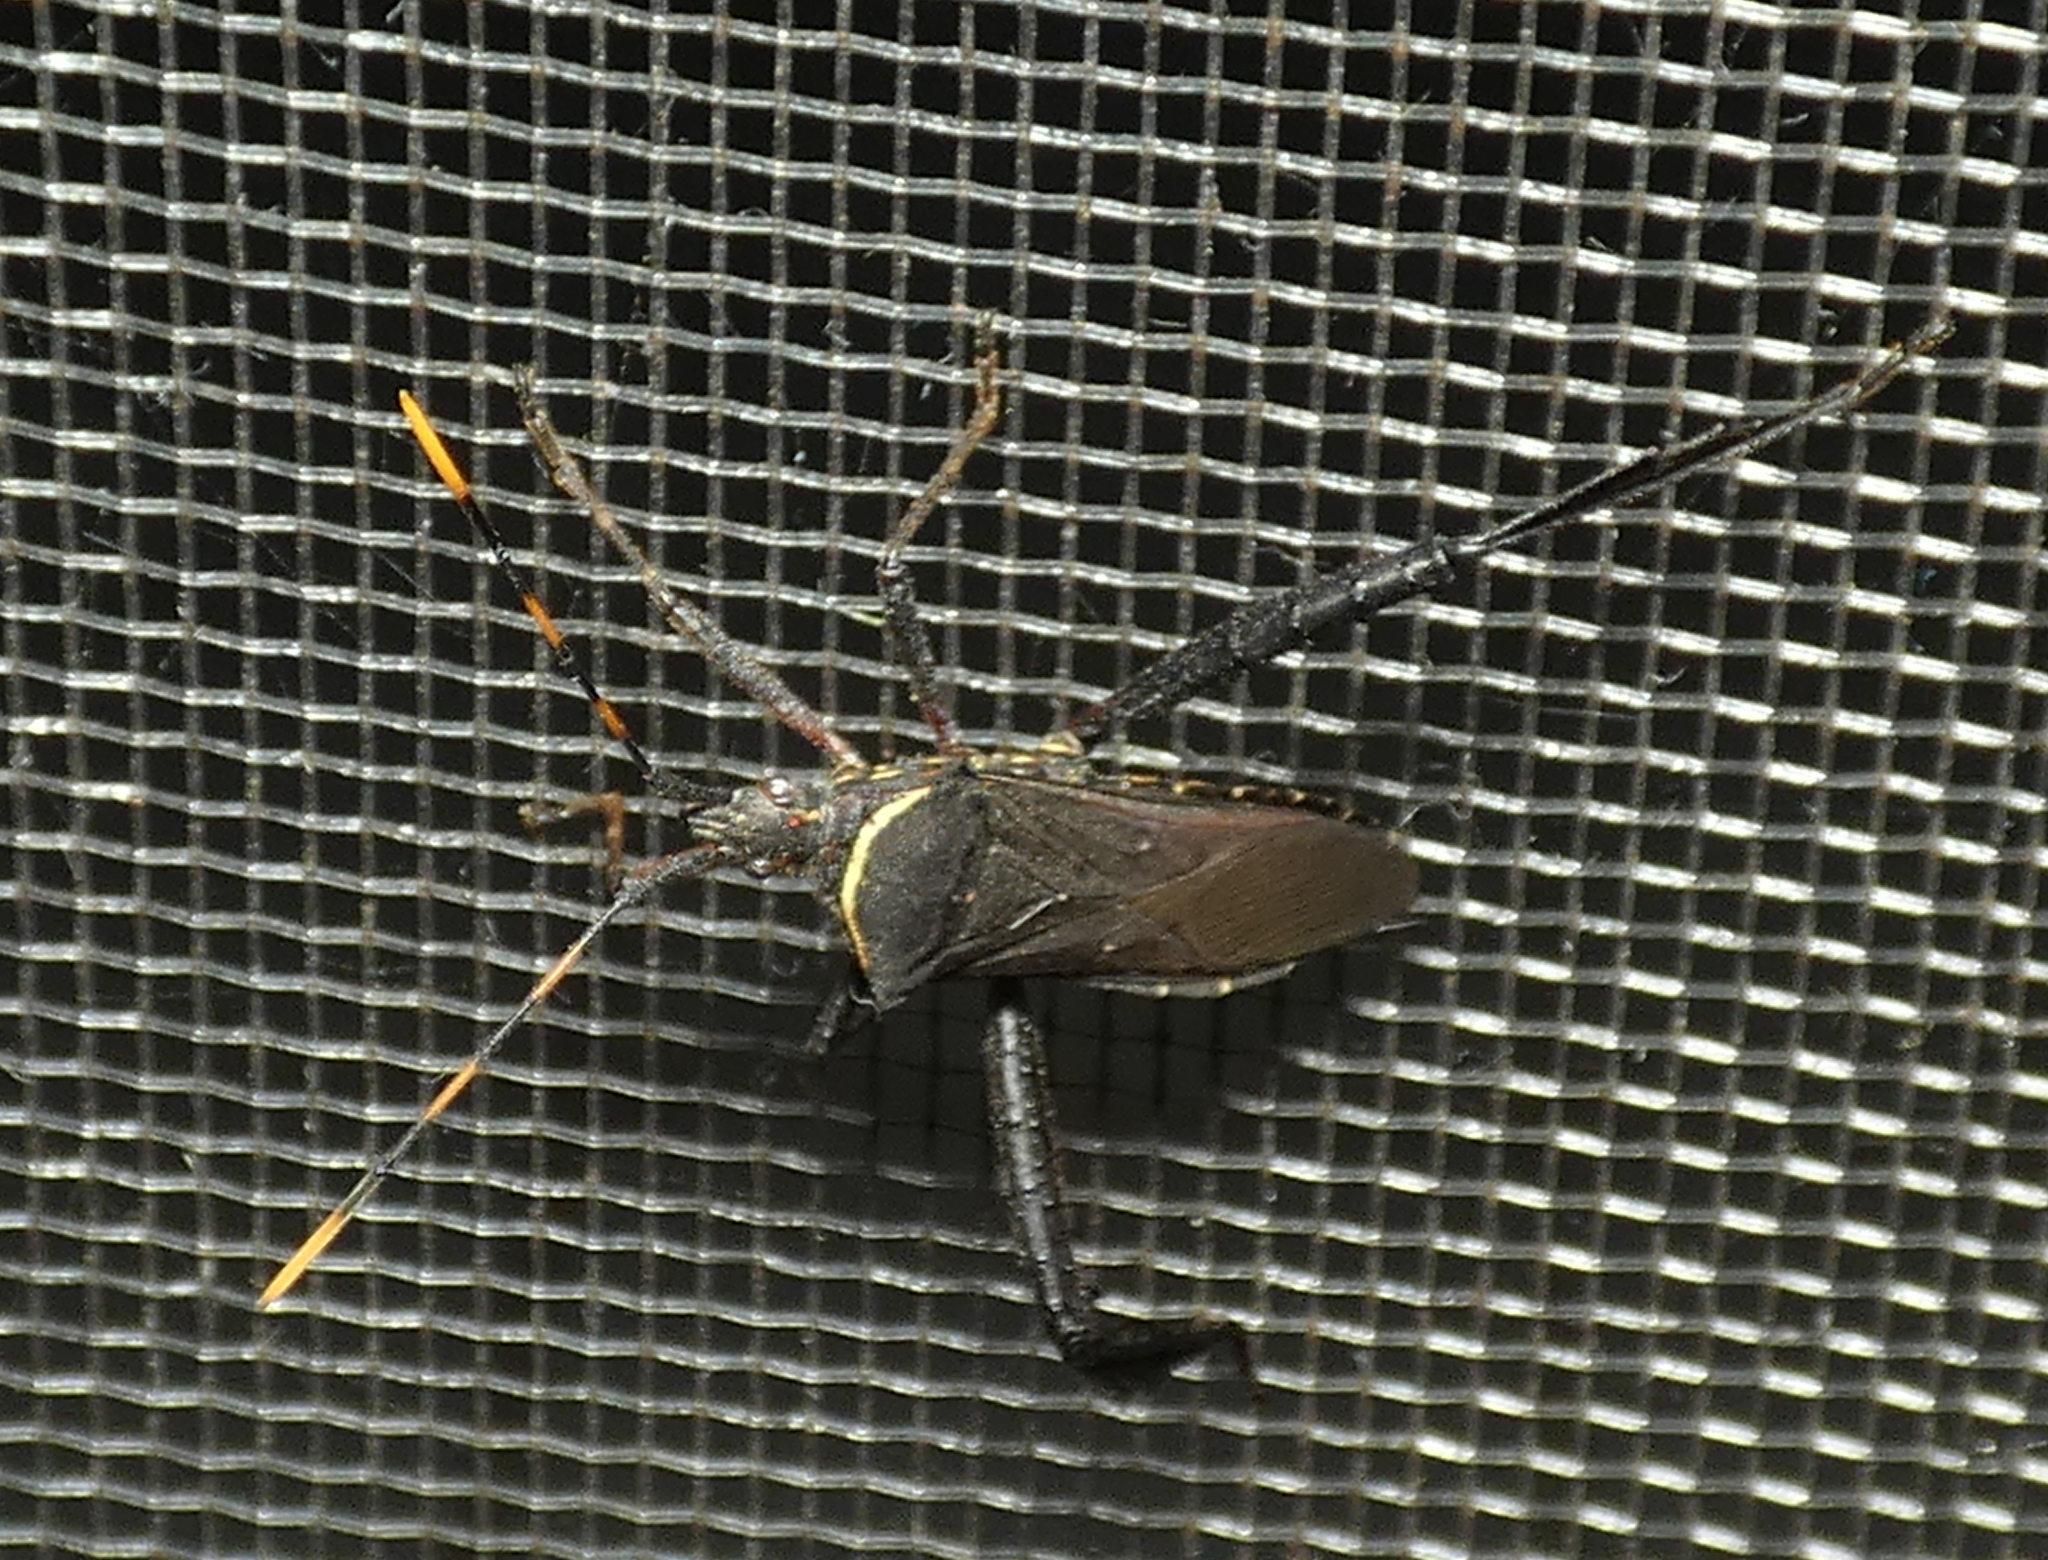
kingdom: Animalia
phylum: Arthropoda
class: Insecta
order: Hemiptera
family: Coreidae
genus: Leptoglossus
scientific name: Leptoglossus gonagra
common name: Citron bug
